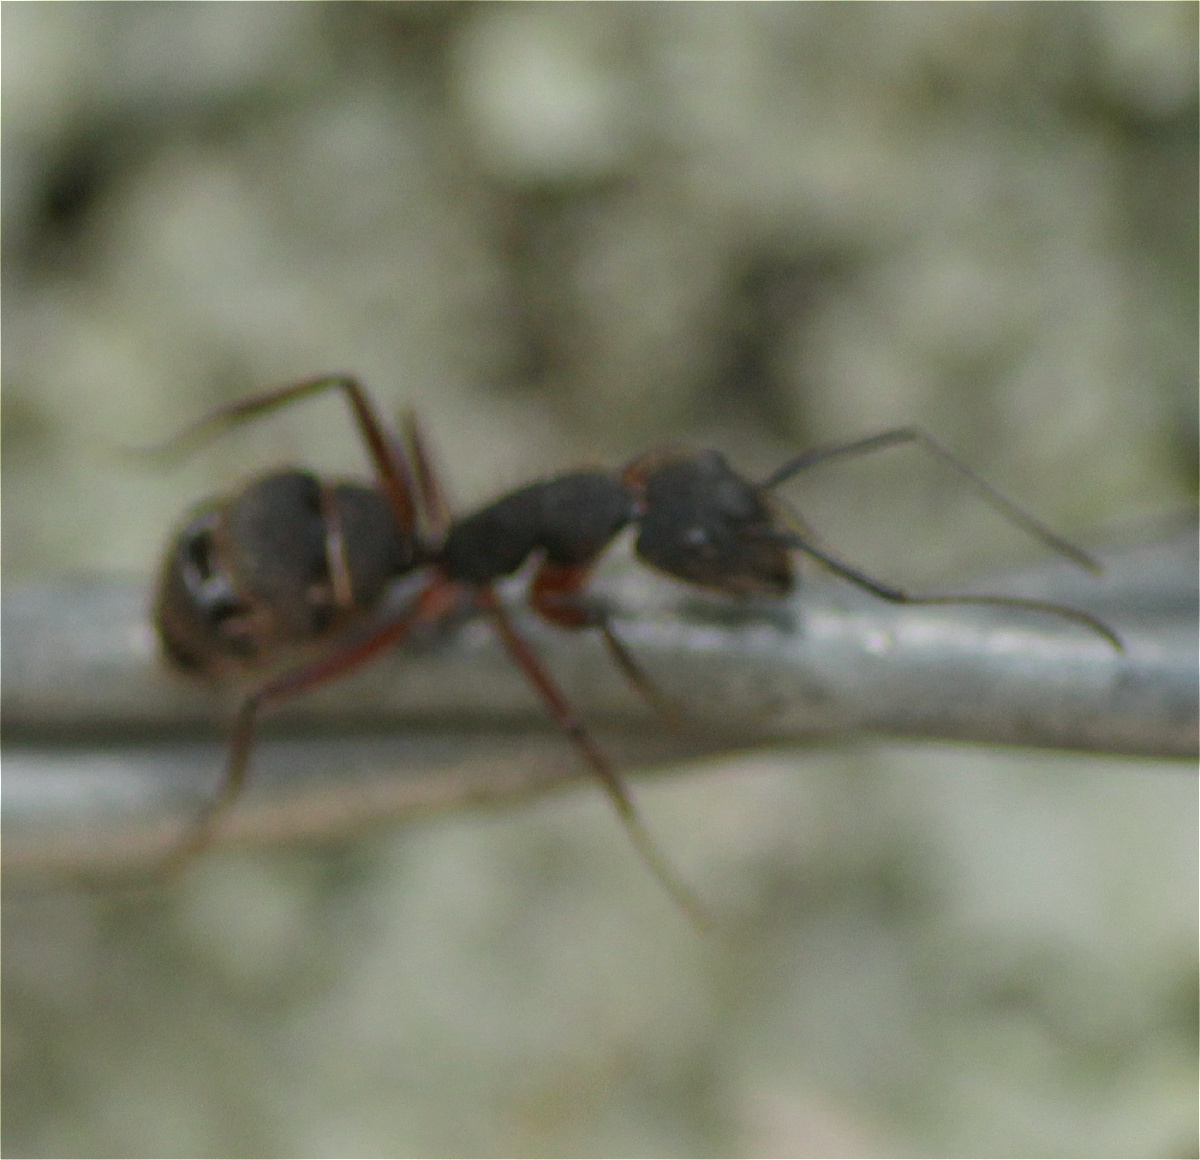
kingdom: Animalia
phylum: Arthropoda
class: Insecta
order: Hymenoptera
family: Formicidae
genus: Camponotus
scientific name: Camponotus rufipes
